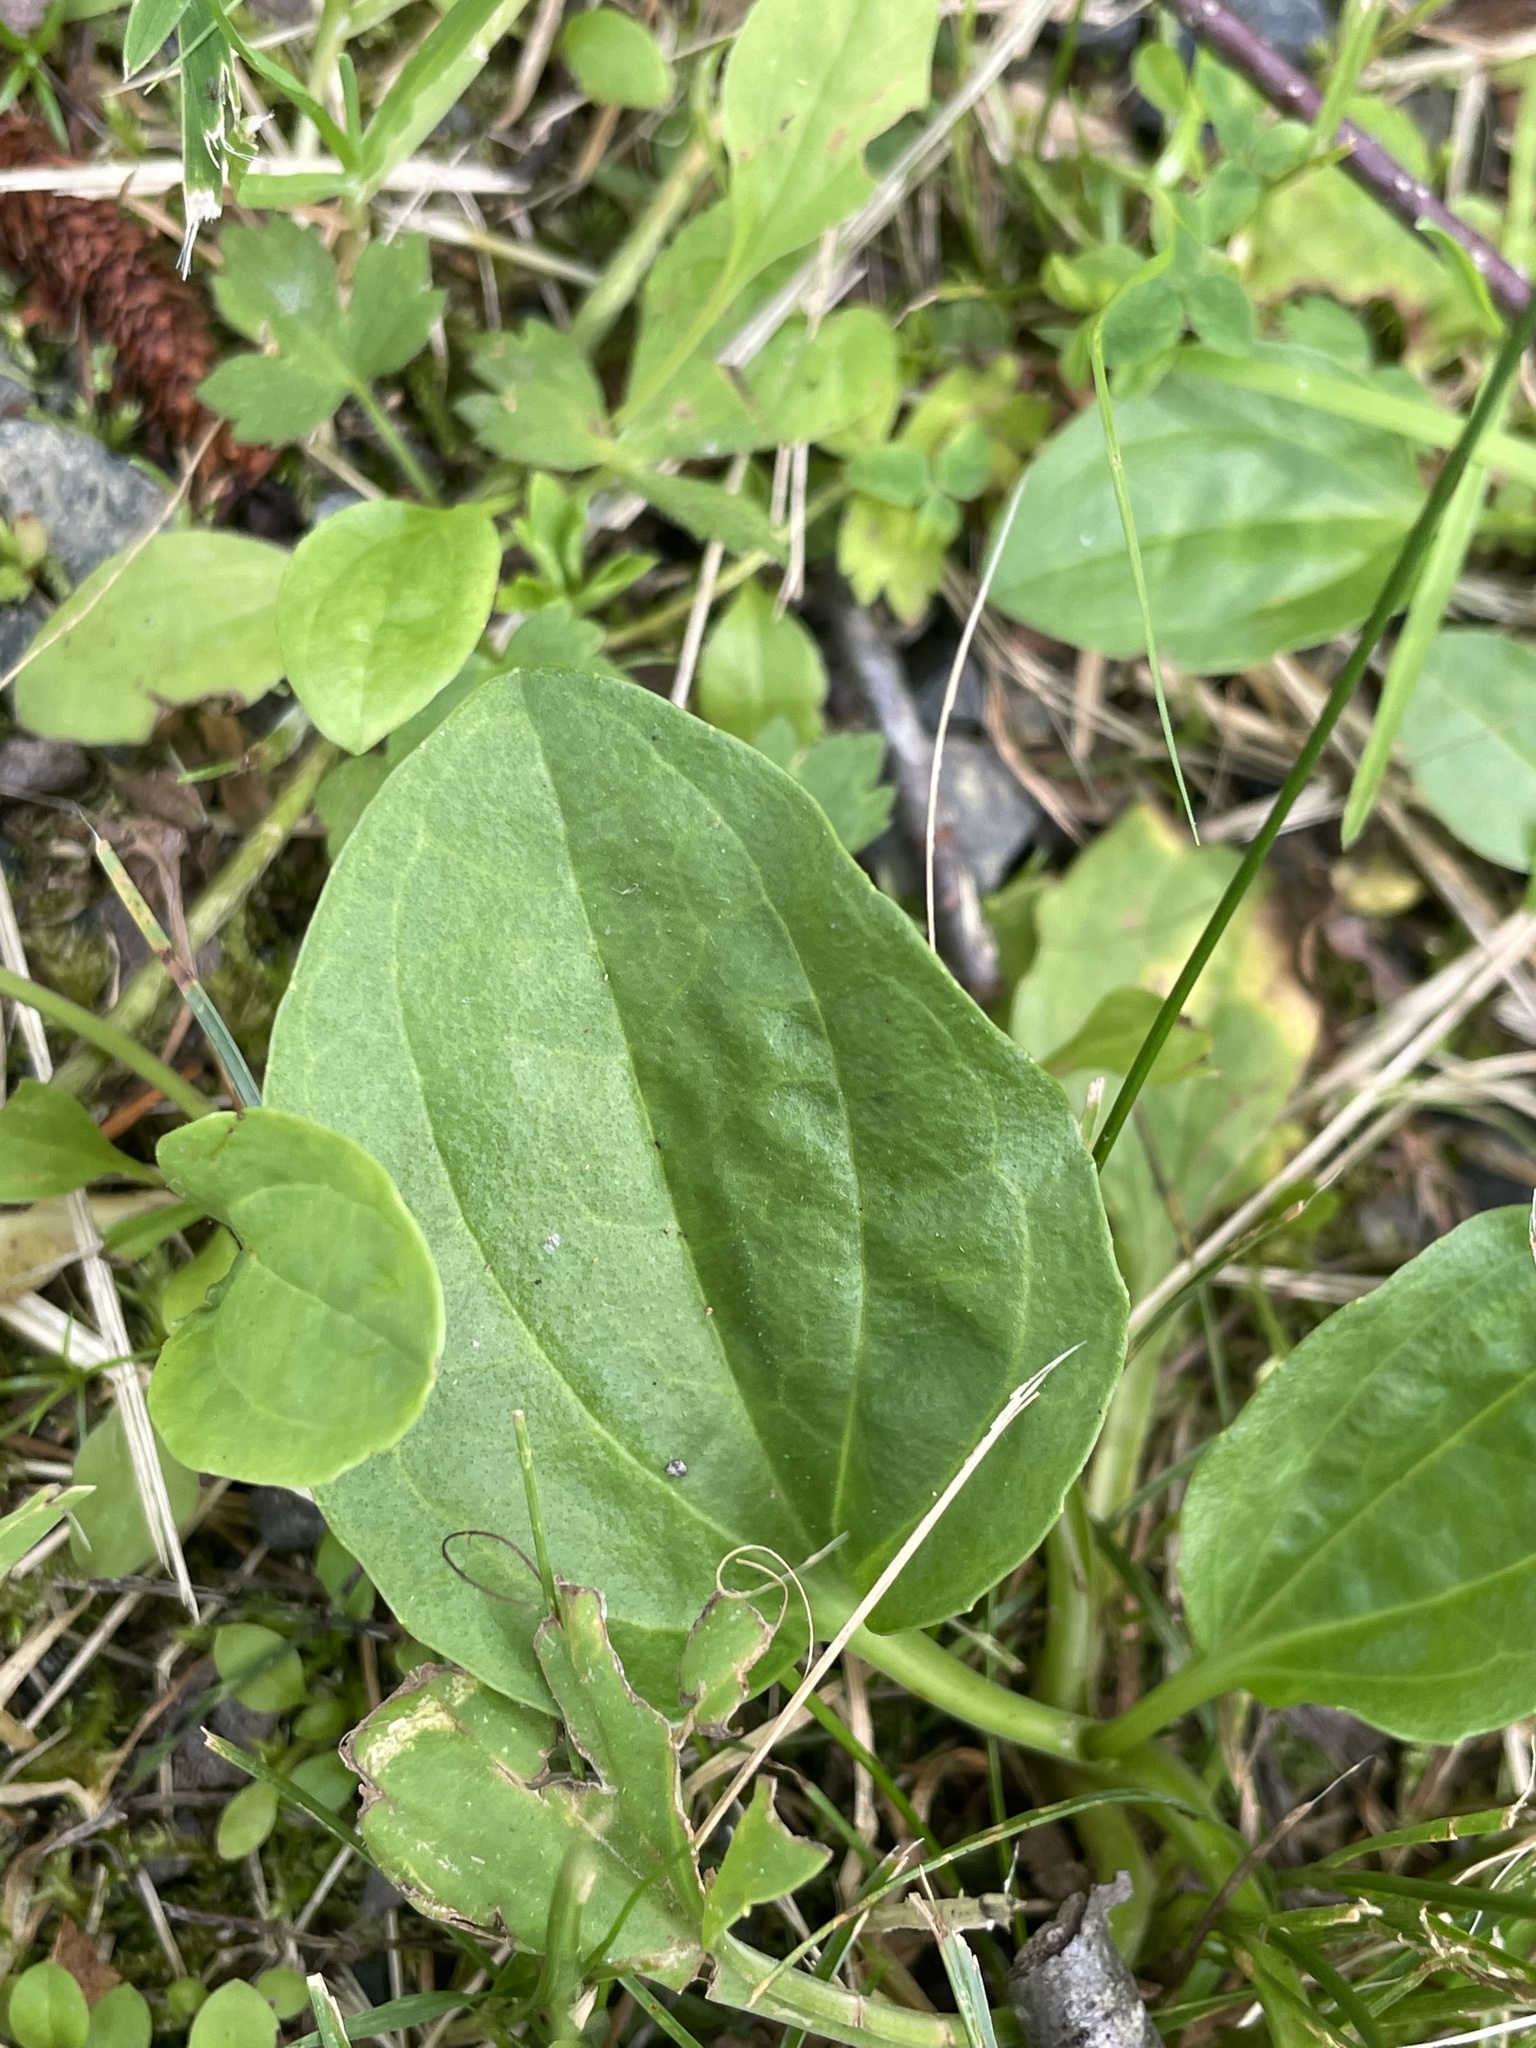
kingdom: Plantae
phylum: Tracheophyta
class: Magnoliopsida
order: Lamiales
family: Plantaginaceae
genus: Plantago
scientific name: Plantago major
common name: Common plantain
